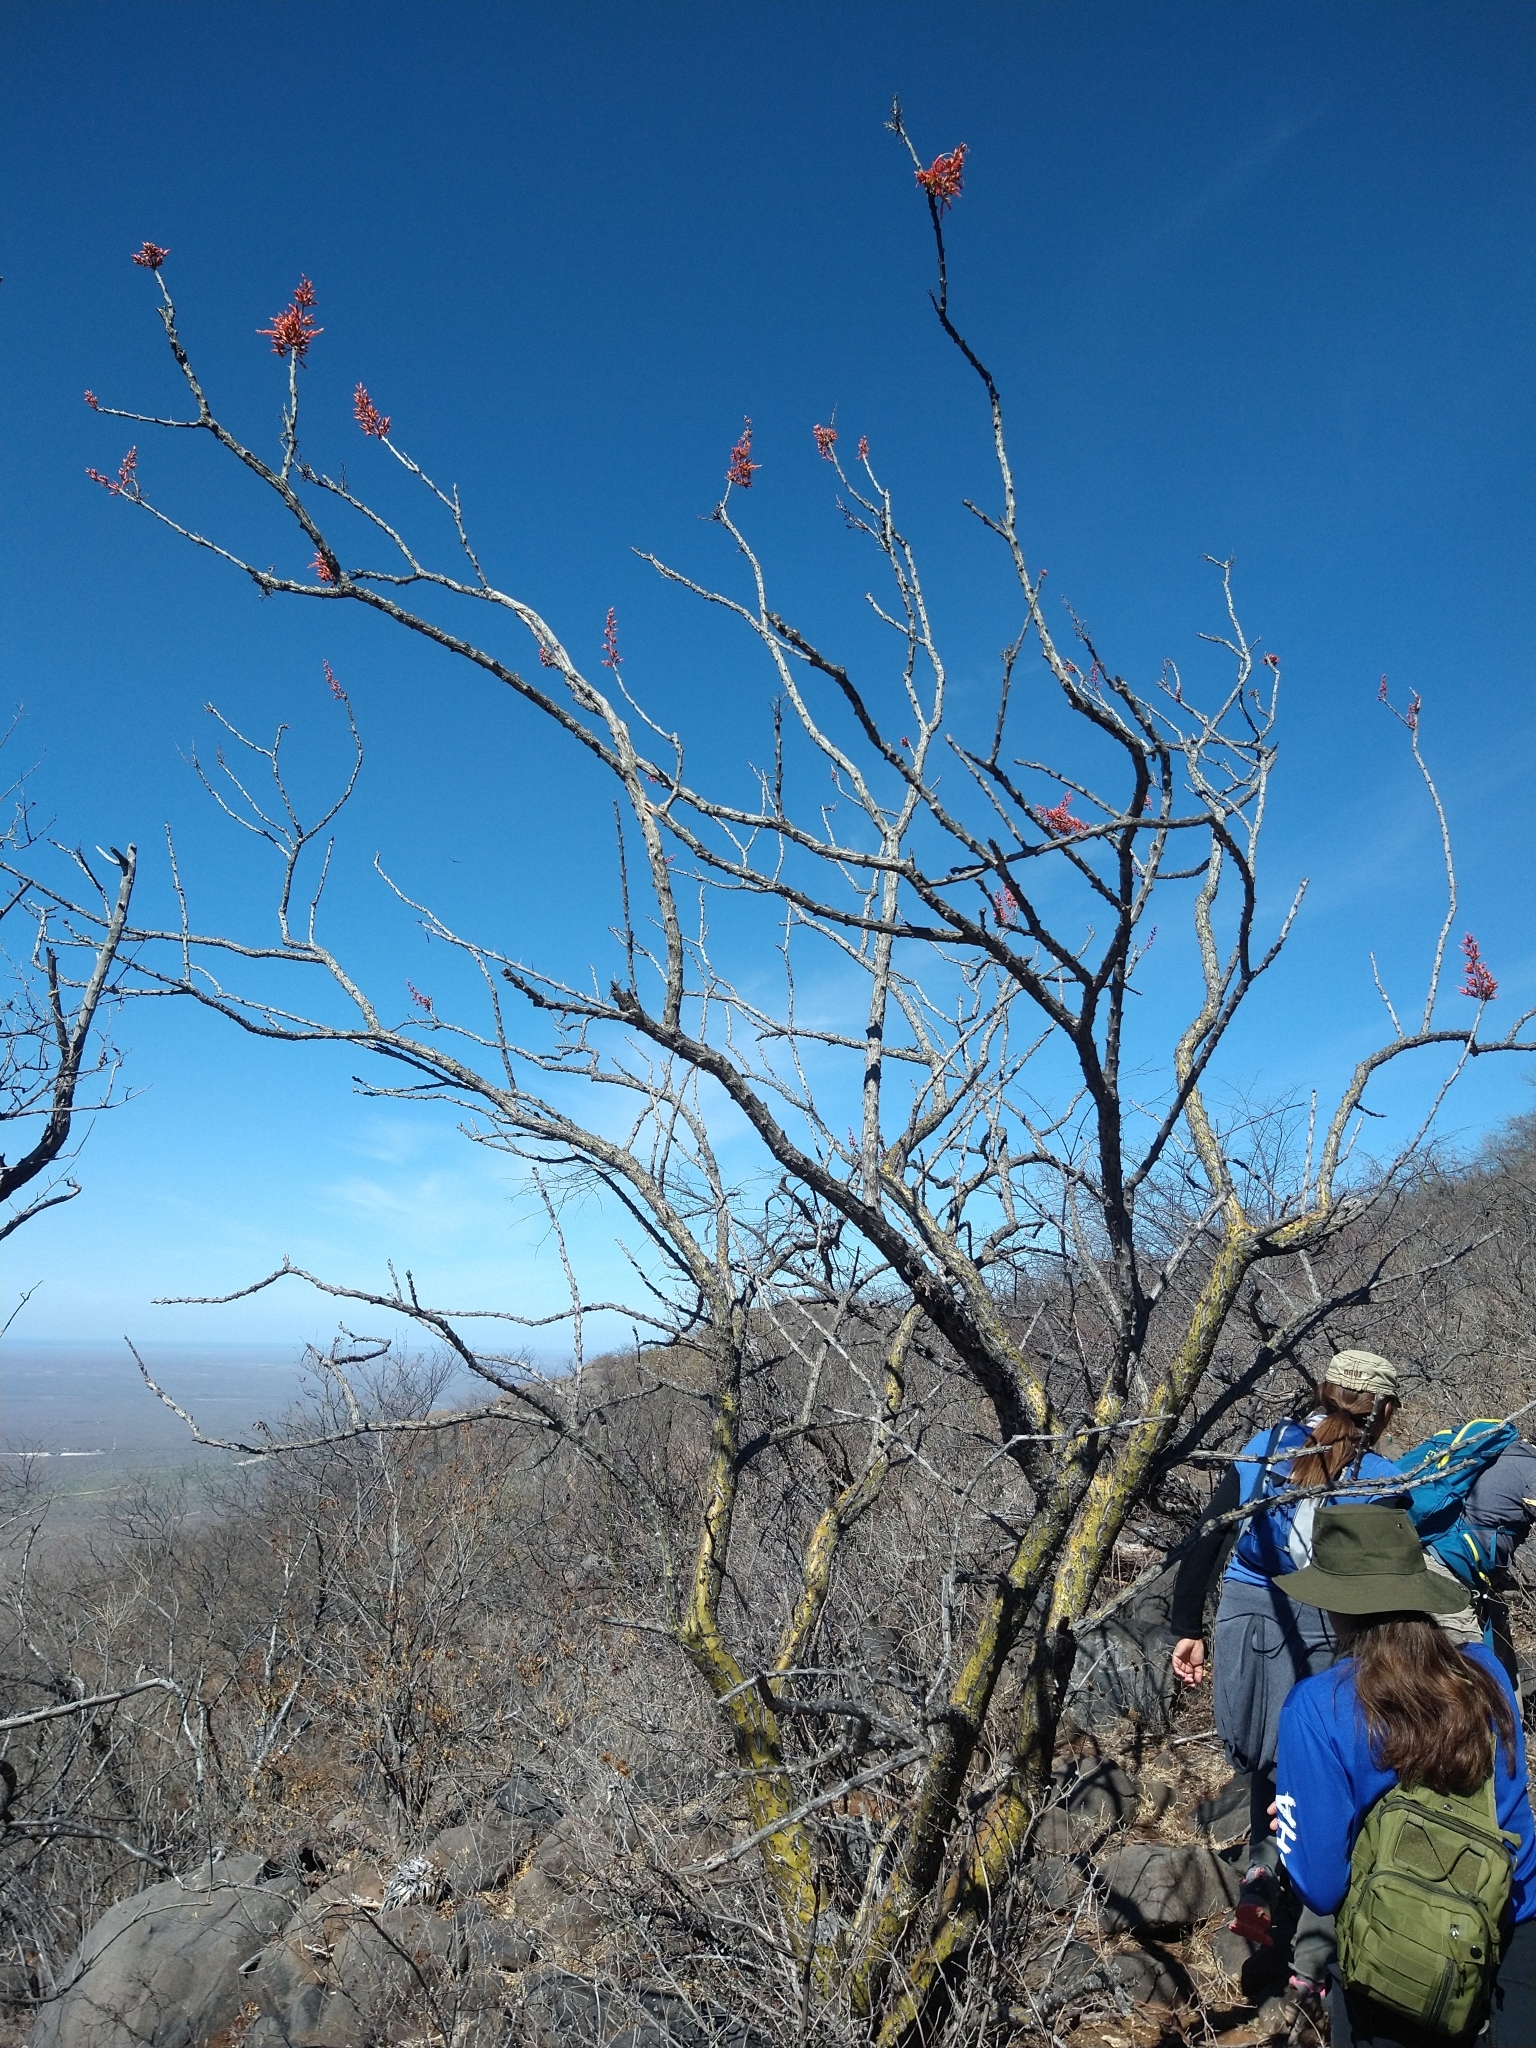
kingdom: Plantae
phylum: Tracheophyta
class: Magnoliopsida
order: Ericales
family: Fouquieriaceae
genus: Fouquieria
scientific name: Fouquieria diguetii
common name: Adam's tree
